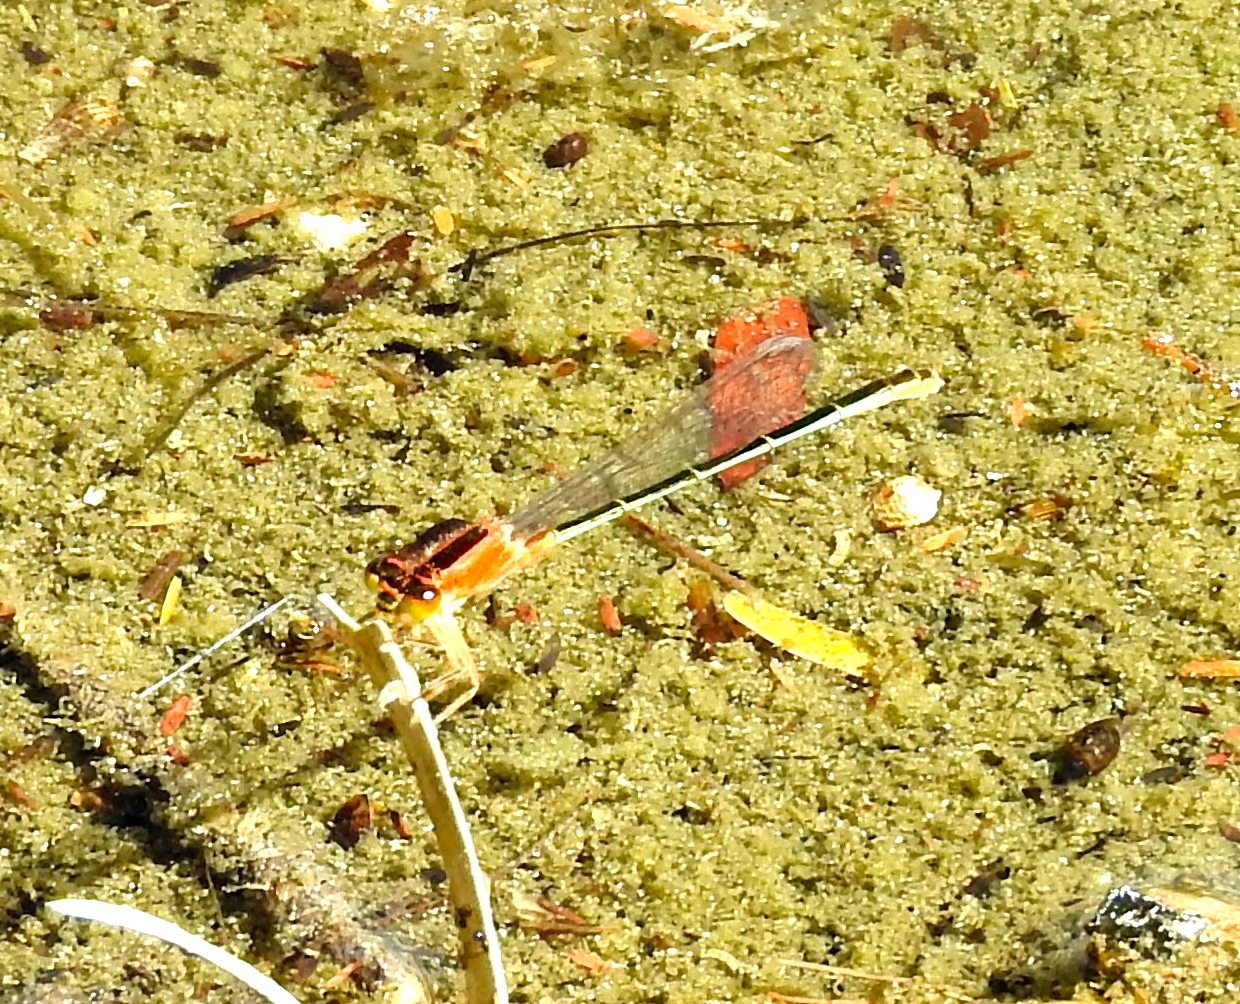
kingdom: Animalia
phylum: Arthropoda
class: Insecta
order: Odonata
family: Coenagrionidae
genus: Ischnura
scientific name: Ischnura ramburii
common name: Rambur's forktail
